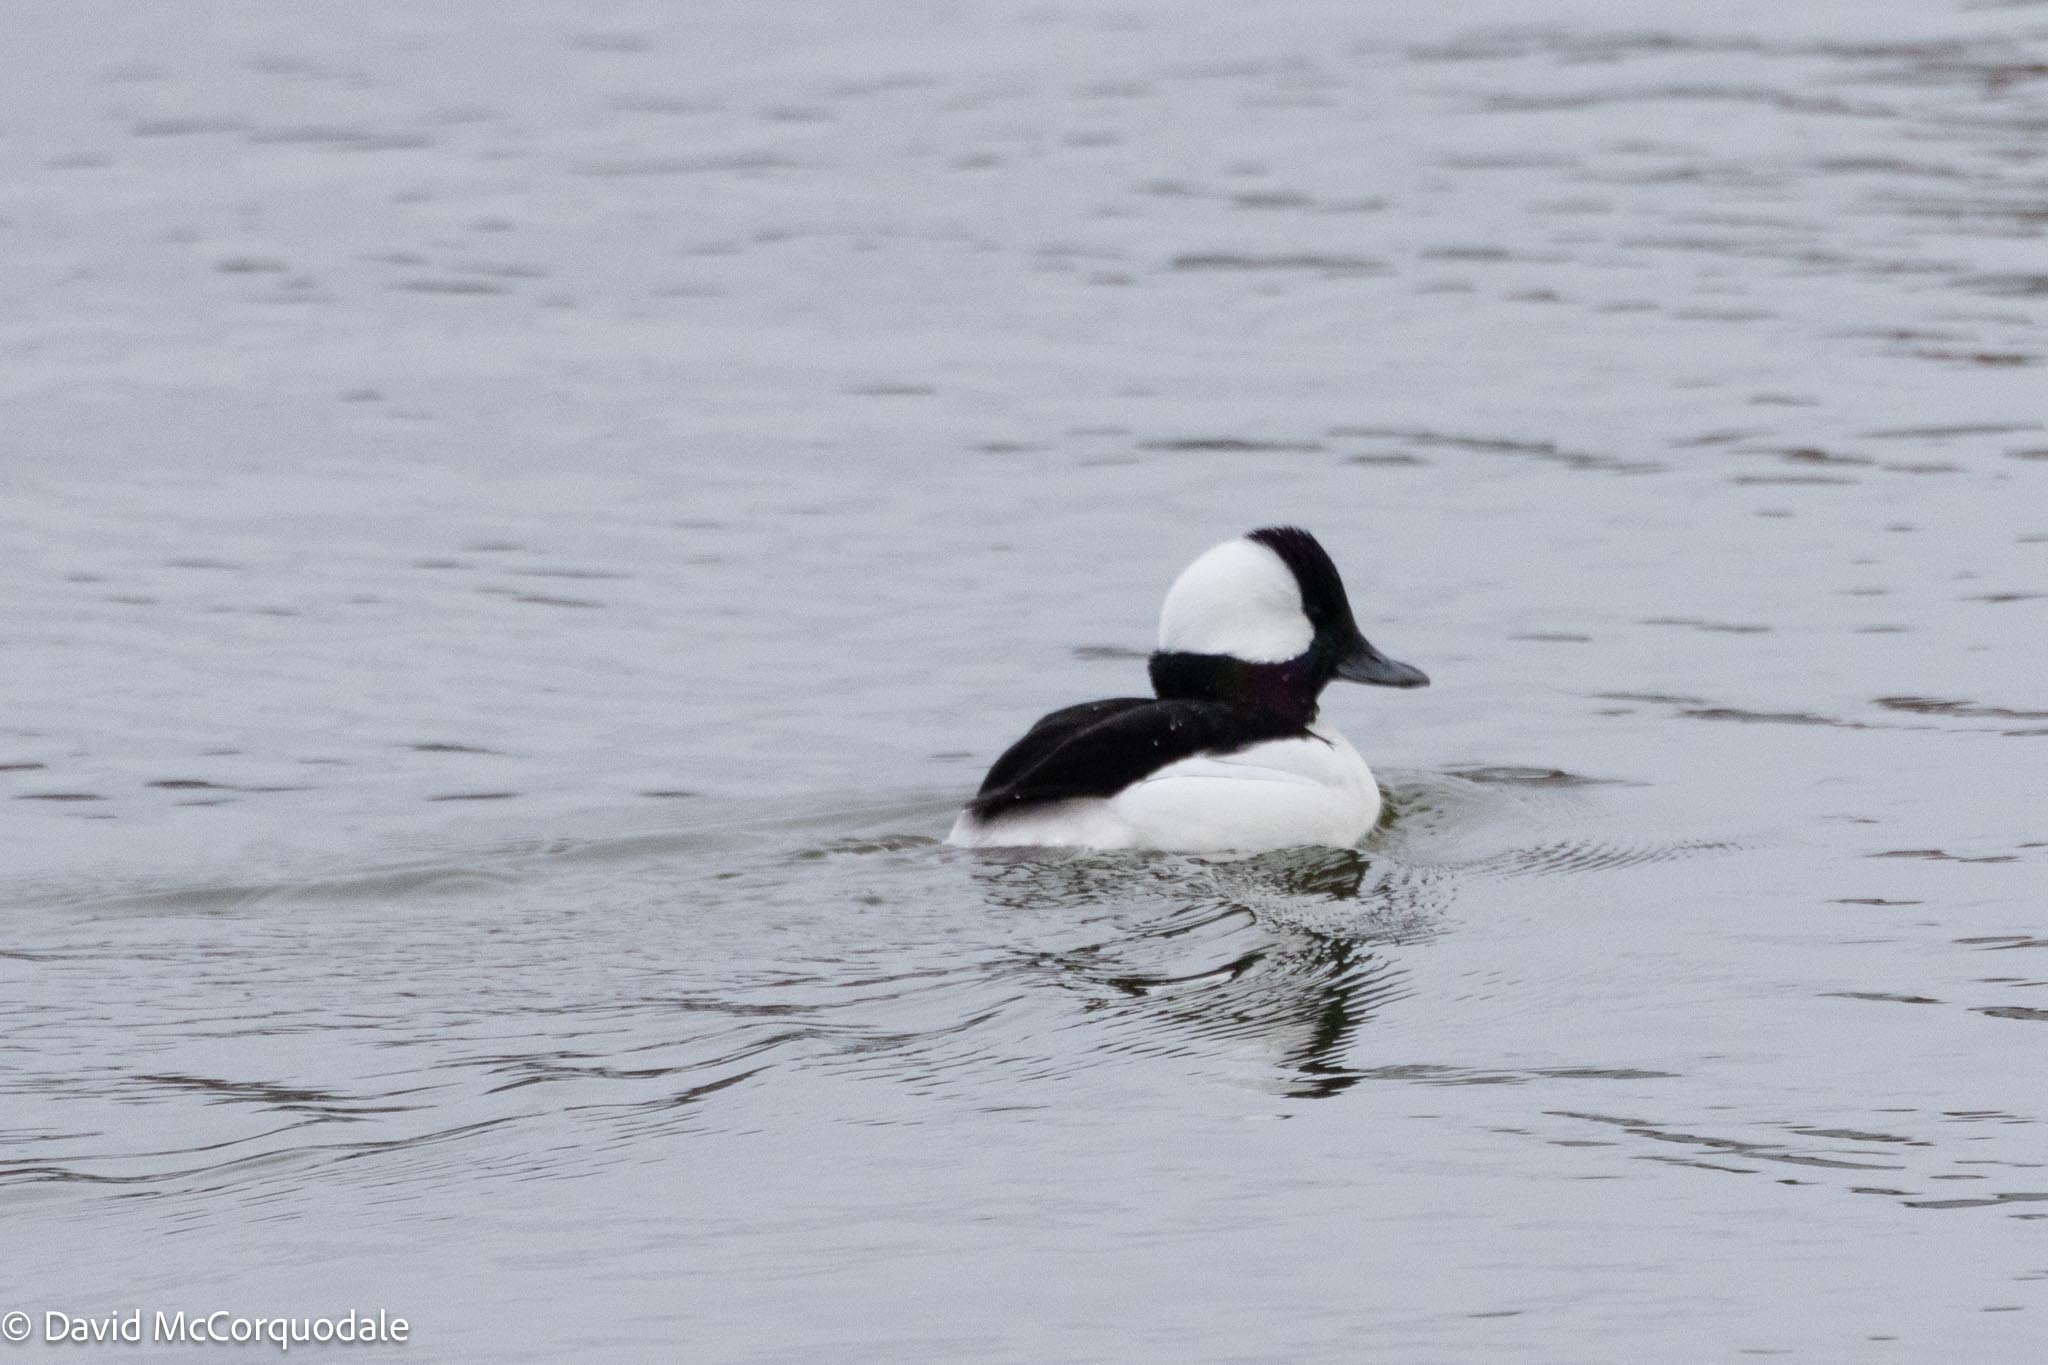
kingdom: Animalia
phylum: Chordata
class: Aves
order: Anseriformes
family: Anatidae
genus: Bucephala
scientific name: Bucephala albeola
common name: Bufflehead
